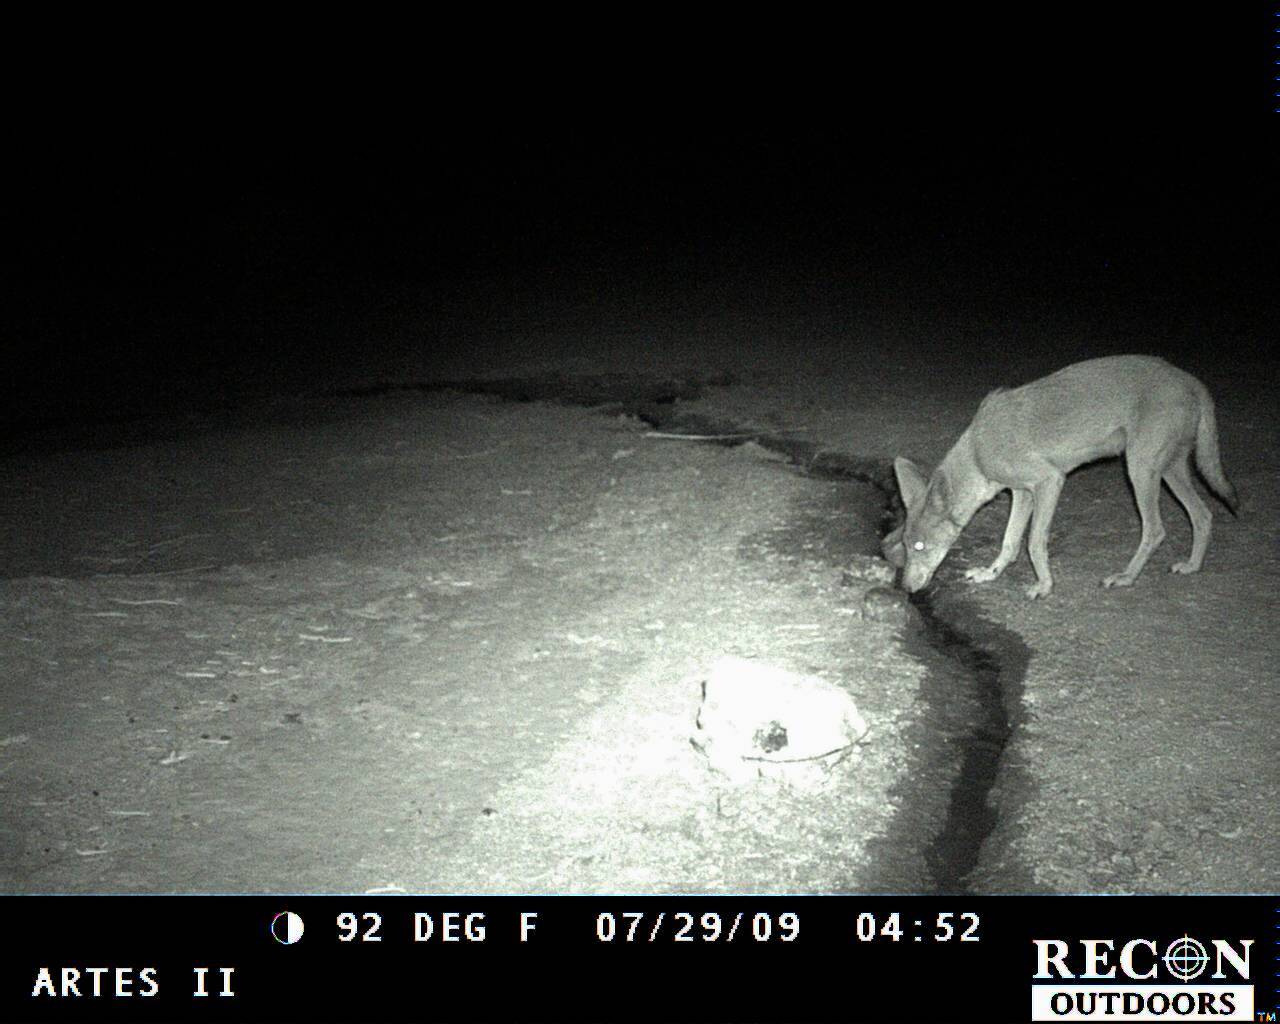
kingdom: Animalia
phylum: Chordata
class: Mammalia
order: Carnivora
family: Canidae
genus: Canis
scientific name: Canis latrans
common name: Coyote
